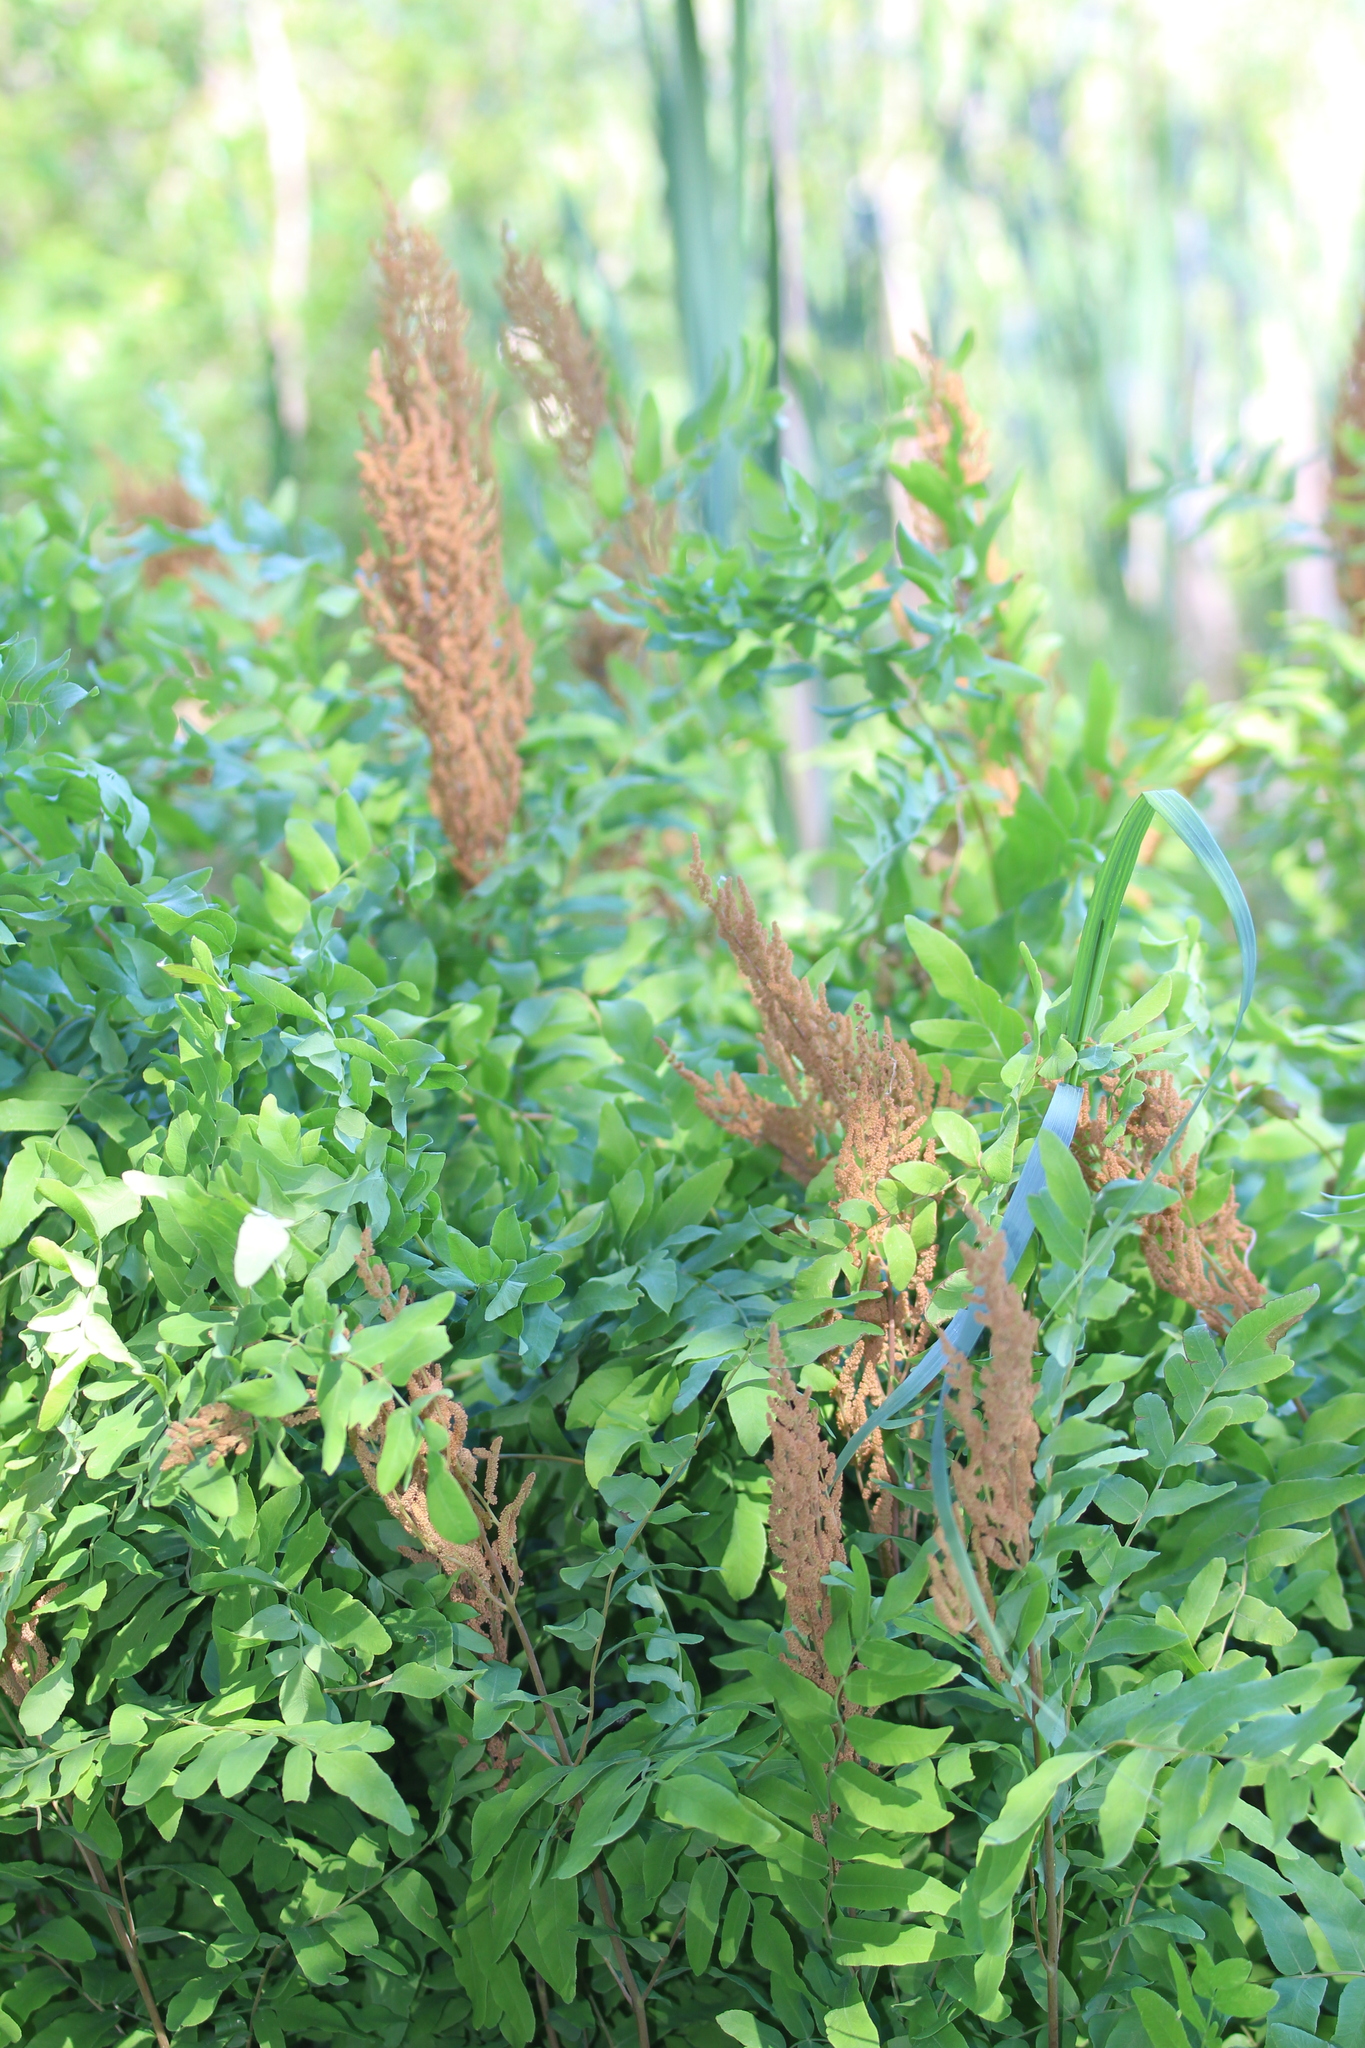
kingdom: Plantae
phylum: Tracheophyta
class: Polypodiopsida
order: Osmundales
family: Osmundaceae
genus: Osmunda
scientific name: Osmunda spectabilis
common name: American royal fern
